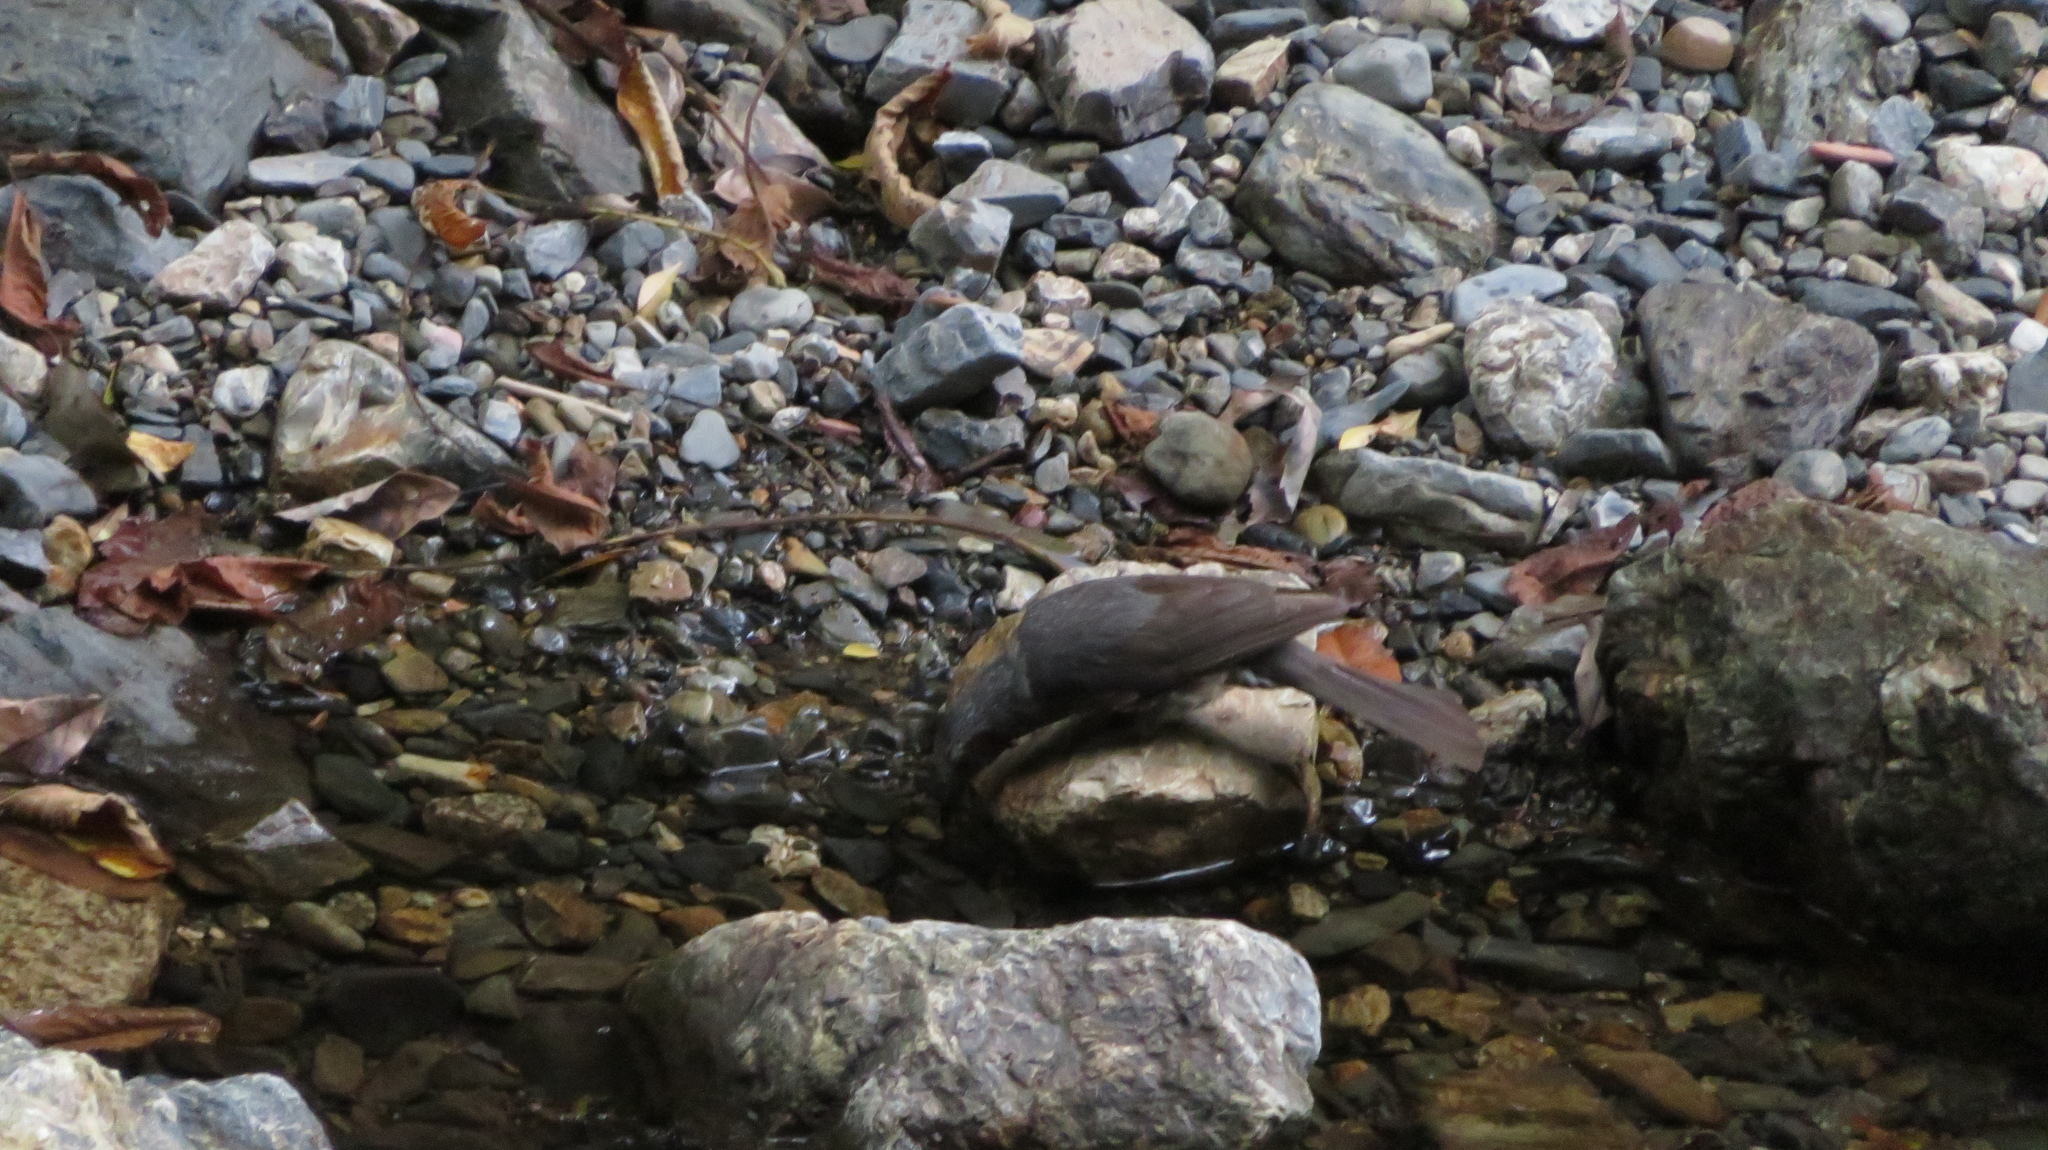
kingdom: Animalia
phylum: Chordata
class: Aves
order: Passeriformes
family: Pycnonotidae
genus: Hypsipetes
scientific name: Hypsipetes amaurotis
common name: Brown-eared bulbul
